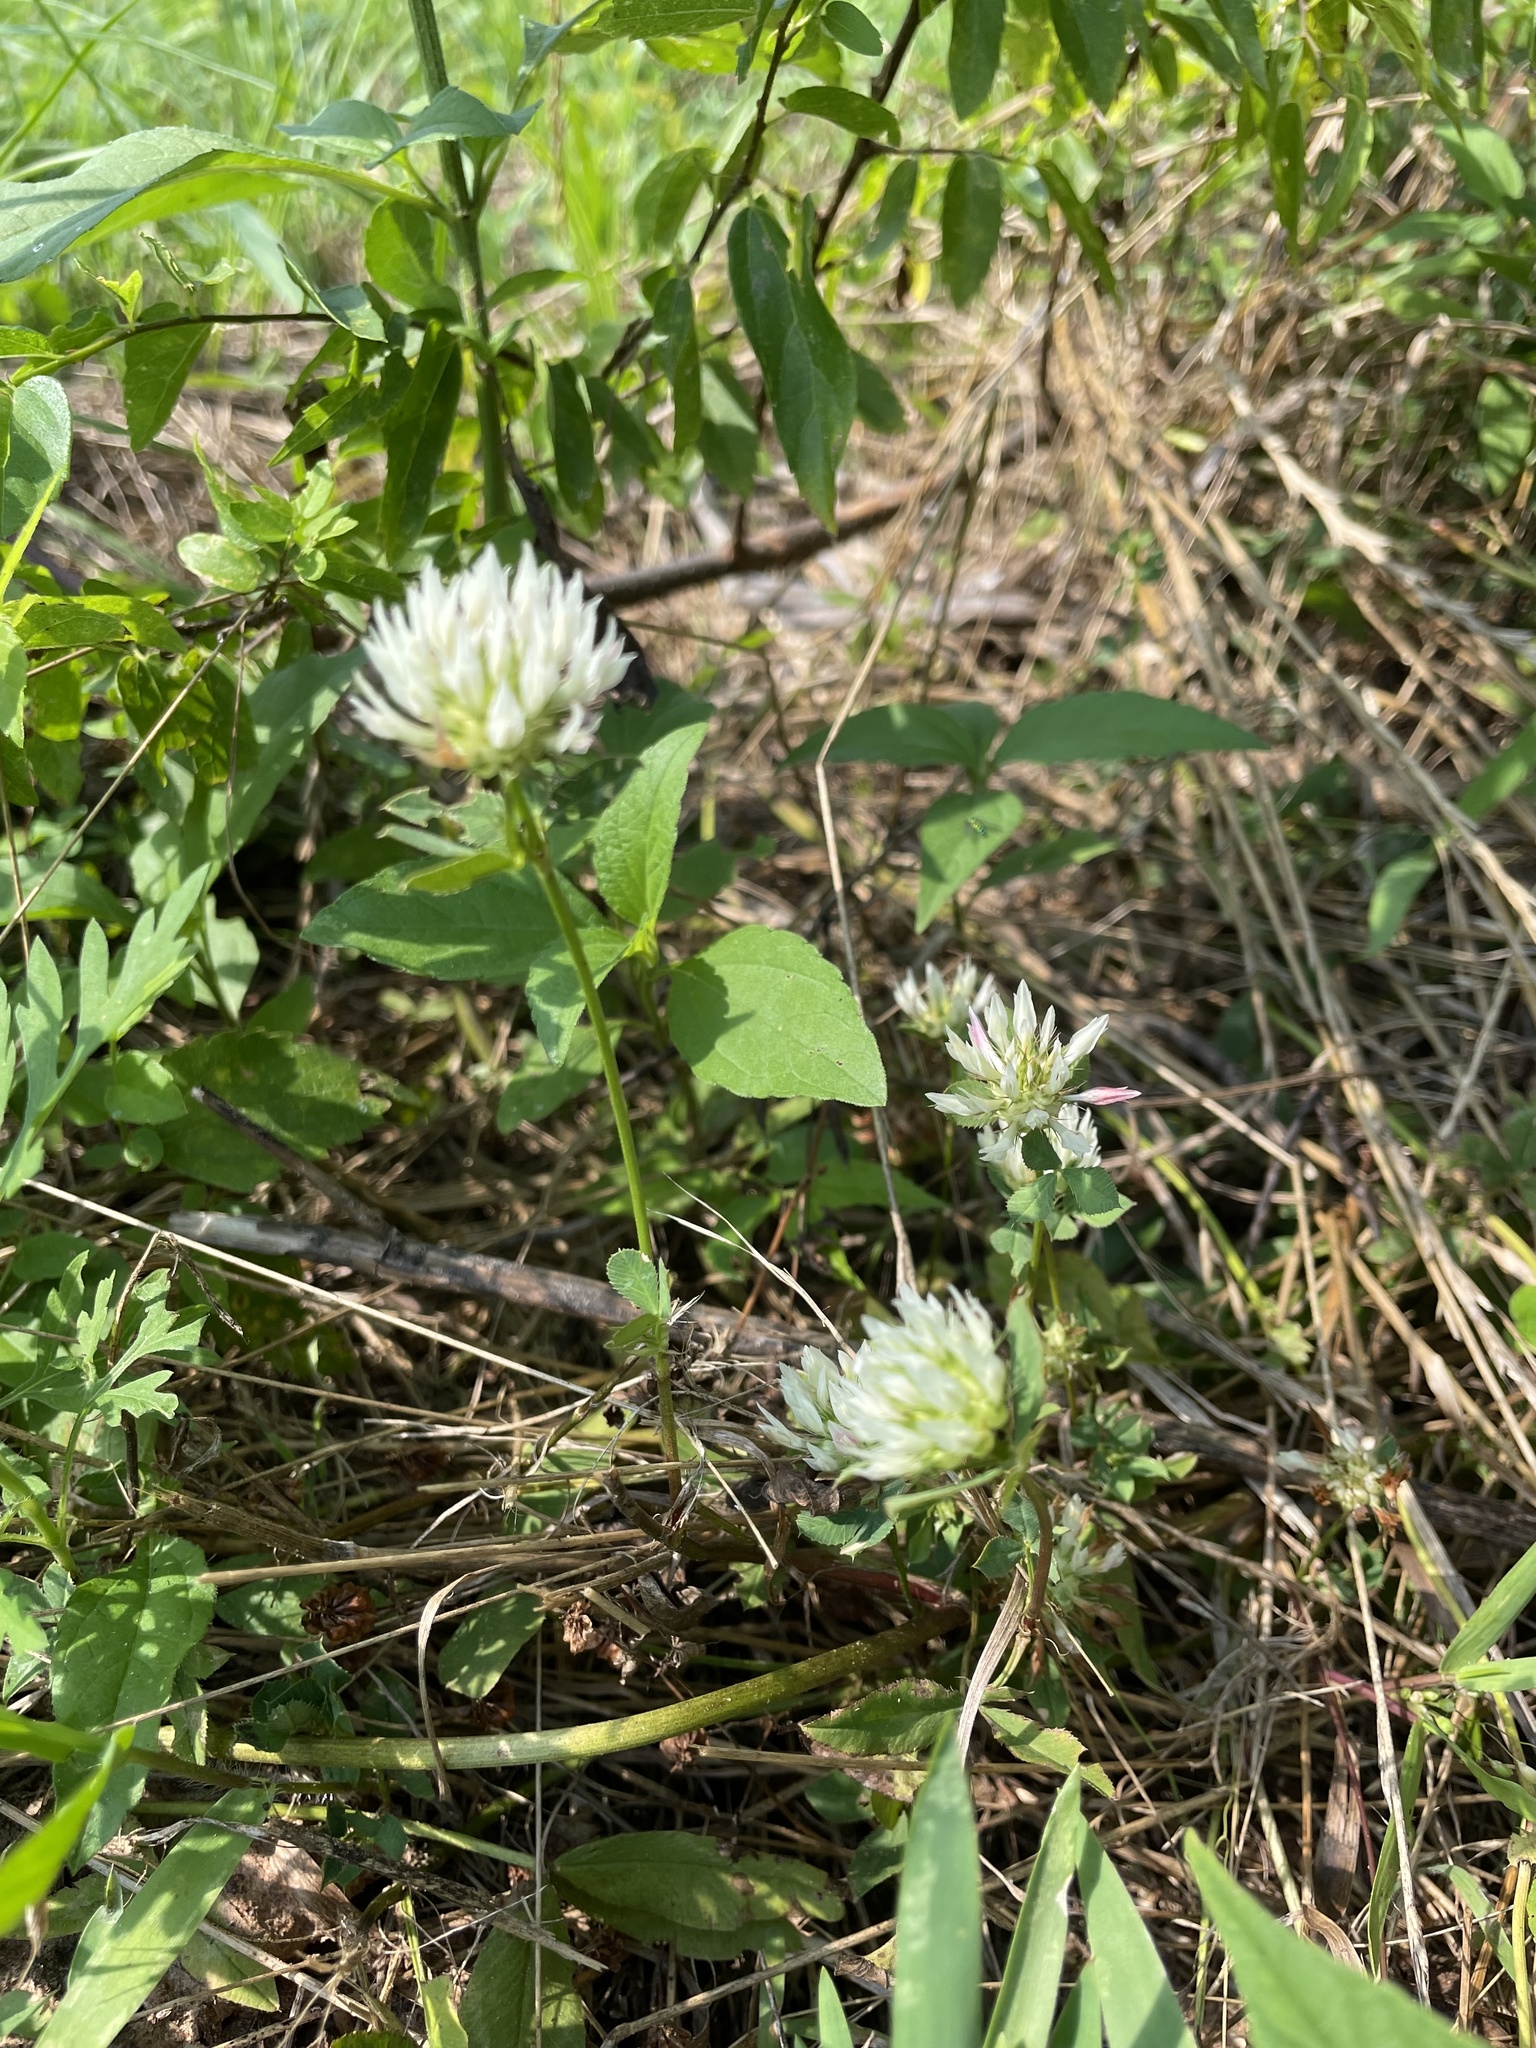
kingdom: Plantae
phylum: Tracheophyta
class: Magnoliopsida
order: Fabales
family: Fabaceae
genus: Trifolium
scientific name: Trifolium repens
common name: White clover
